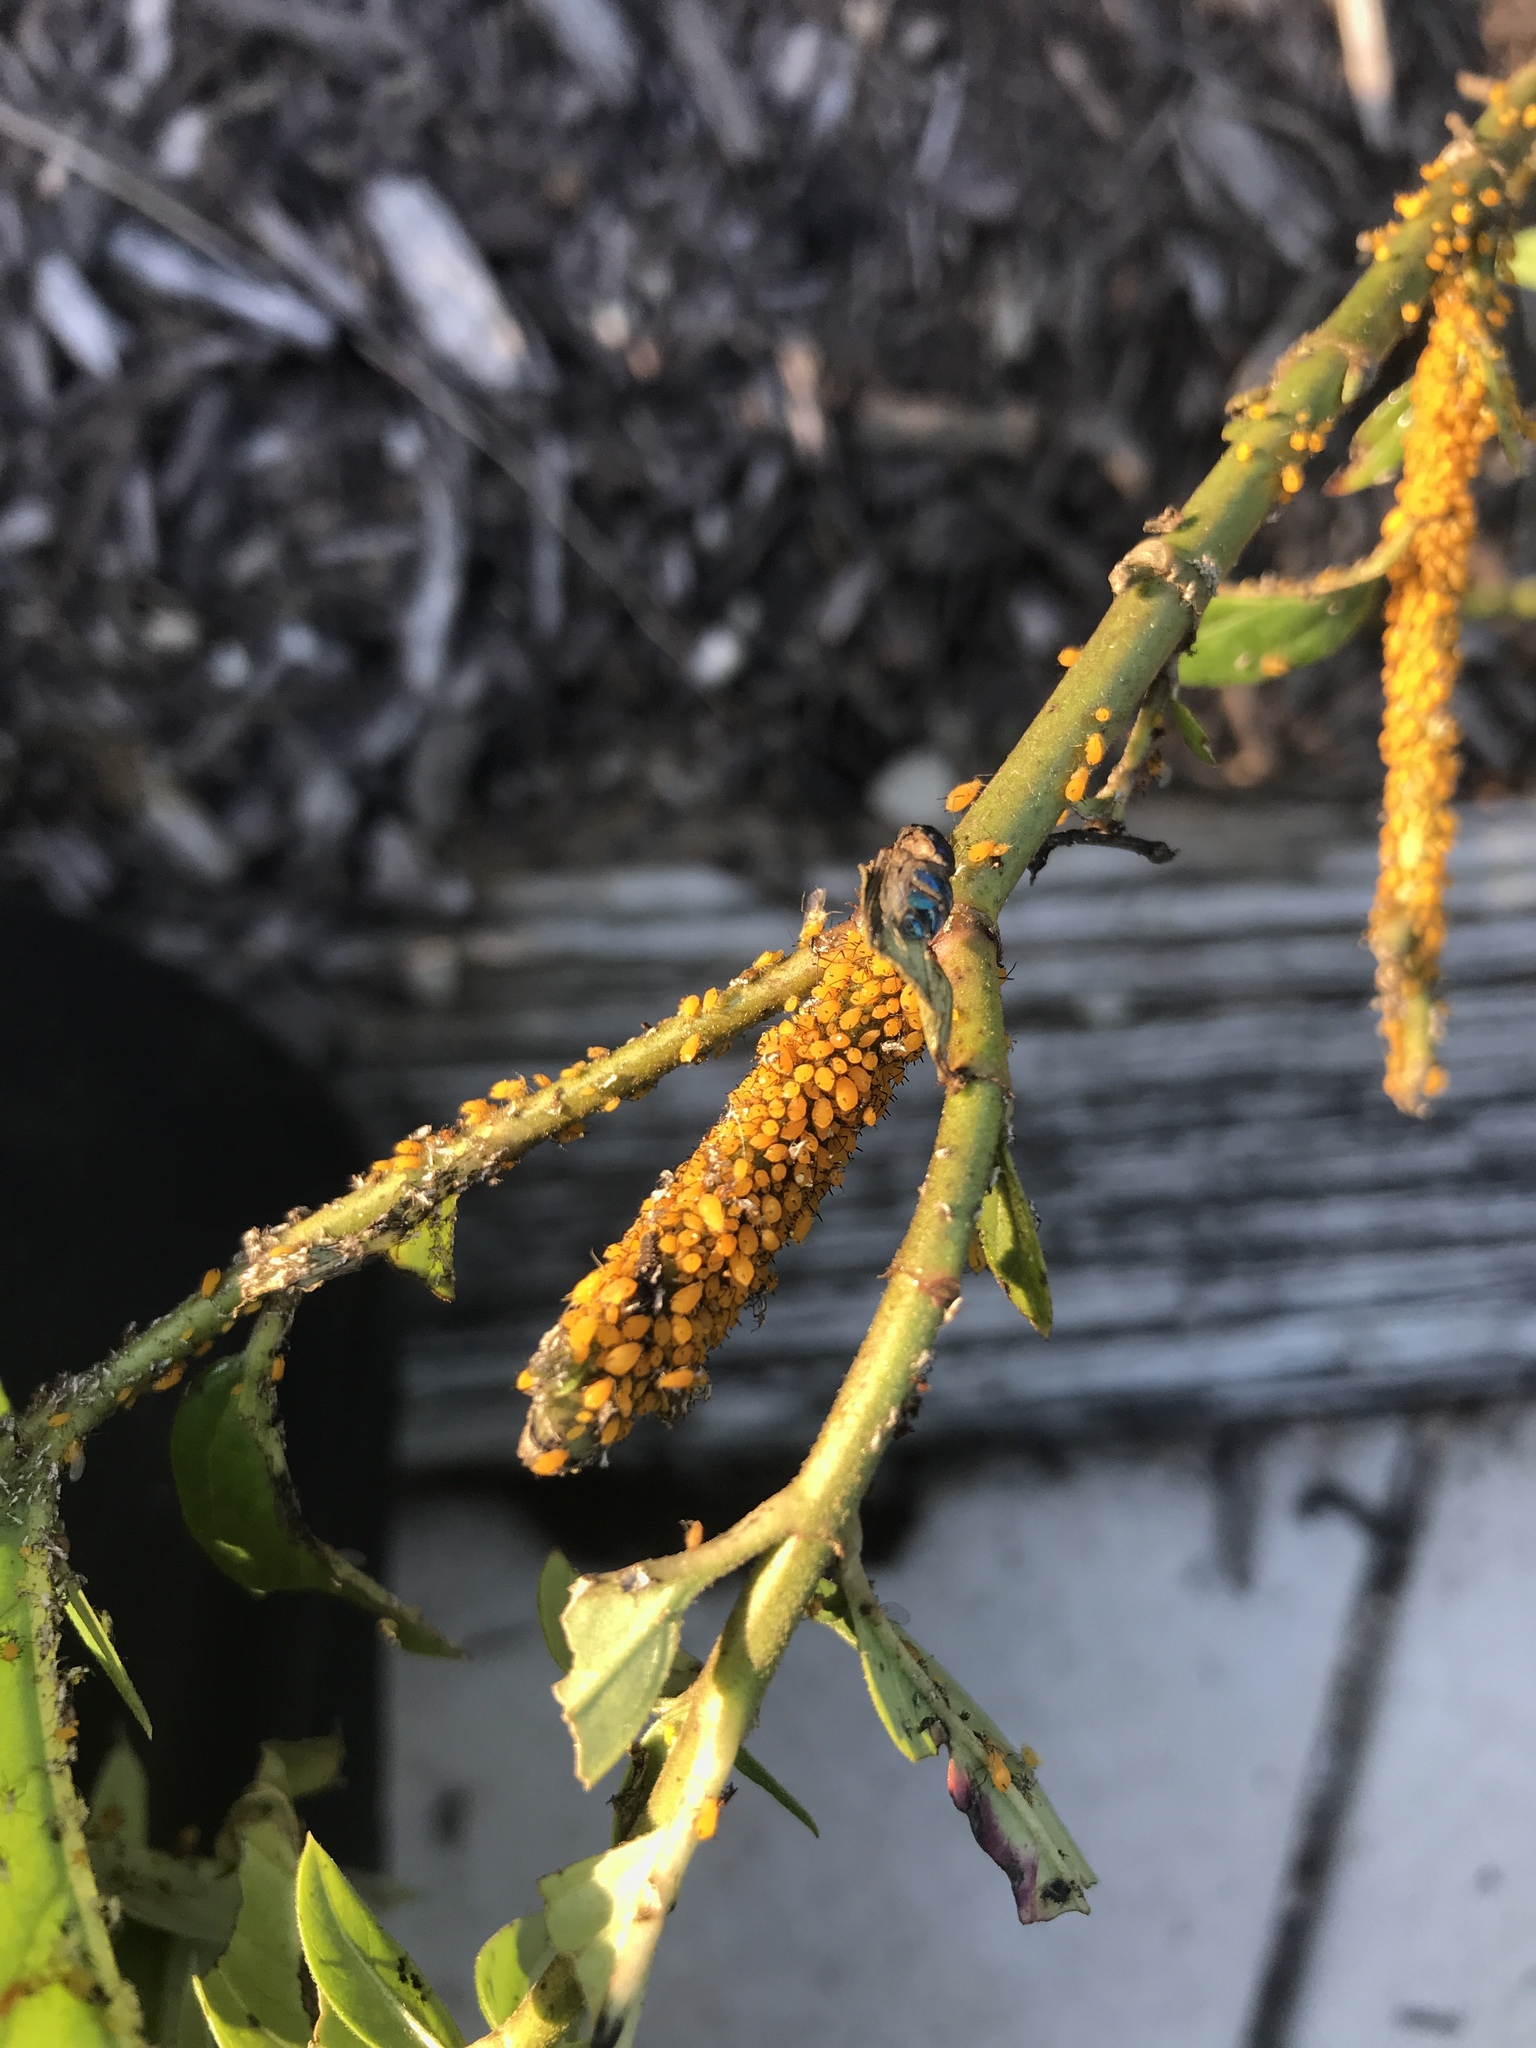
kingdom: Animalia
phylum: Arthropoda
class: Insecta
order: Hemiptera
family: Aphididae
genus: Aphis
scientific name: Aphis nerii
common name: Oleander aphid
